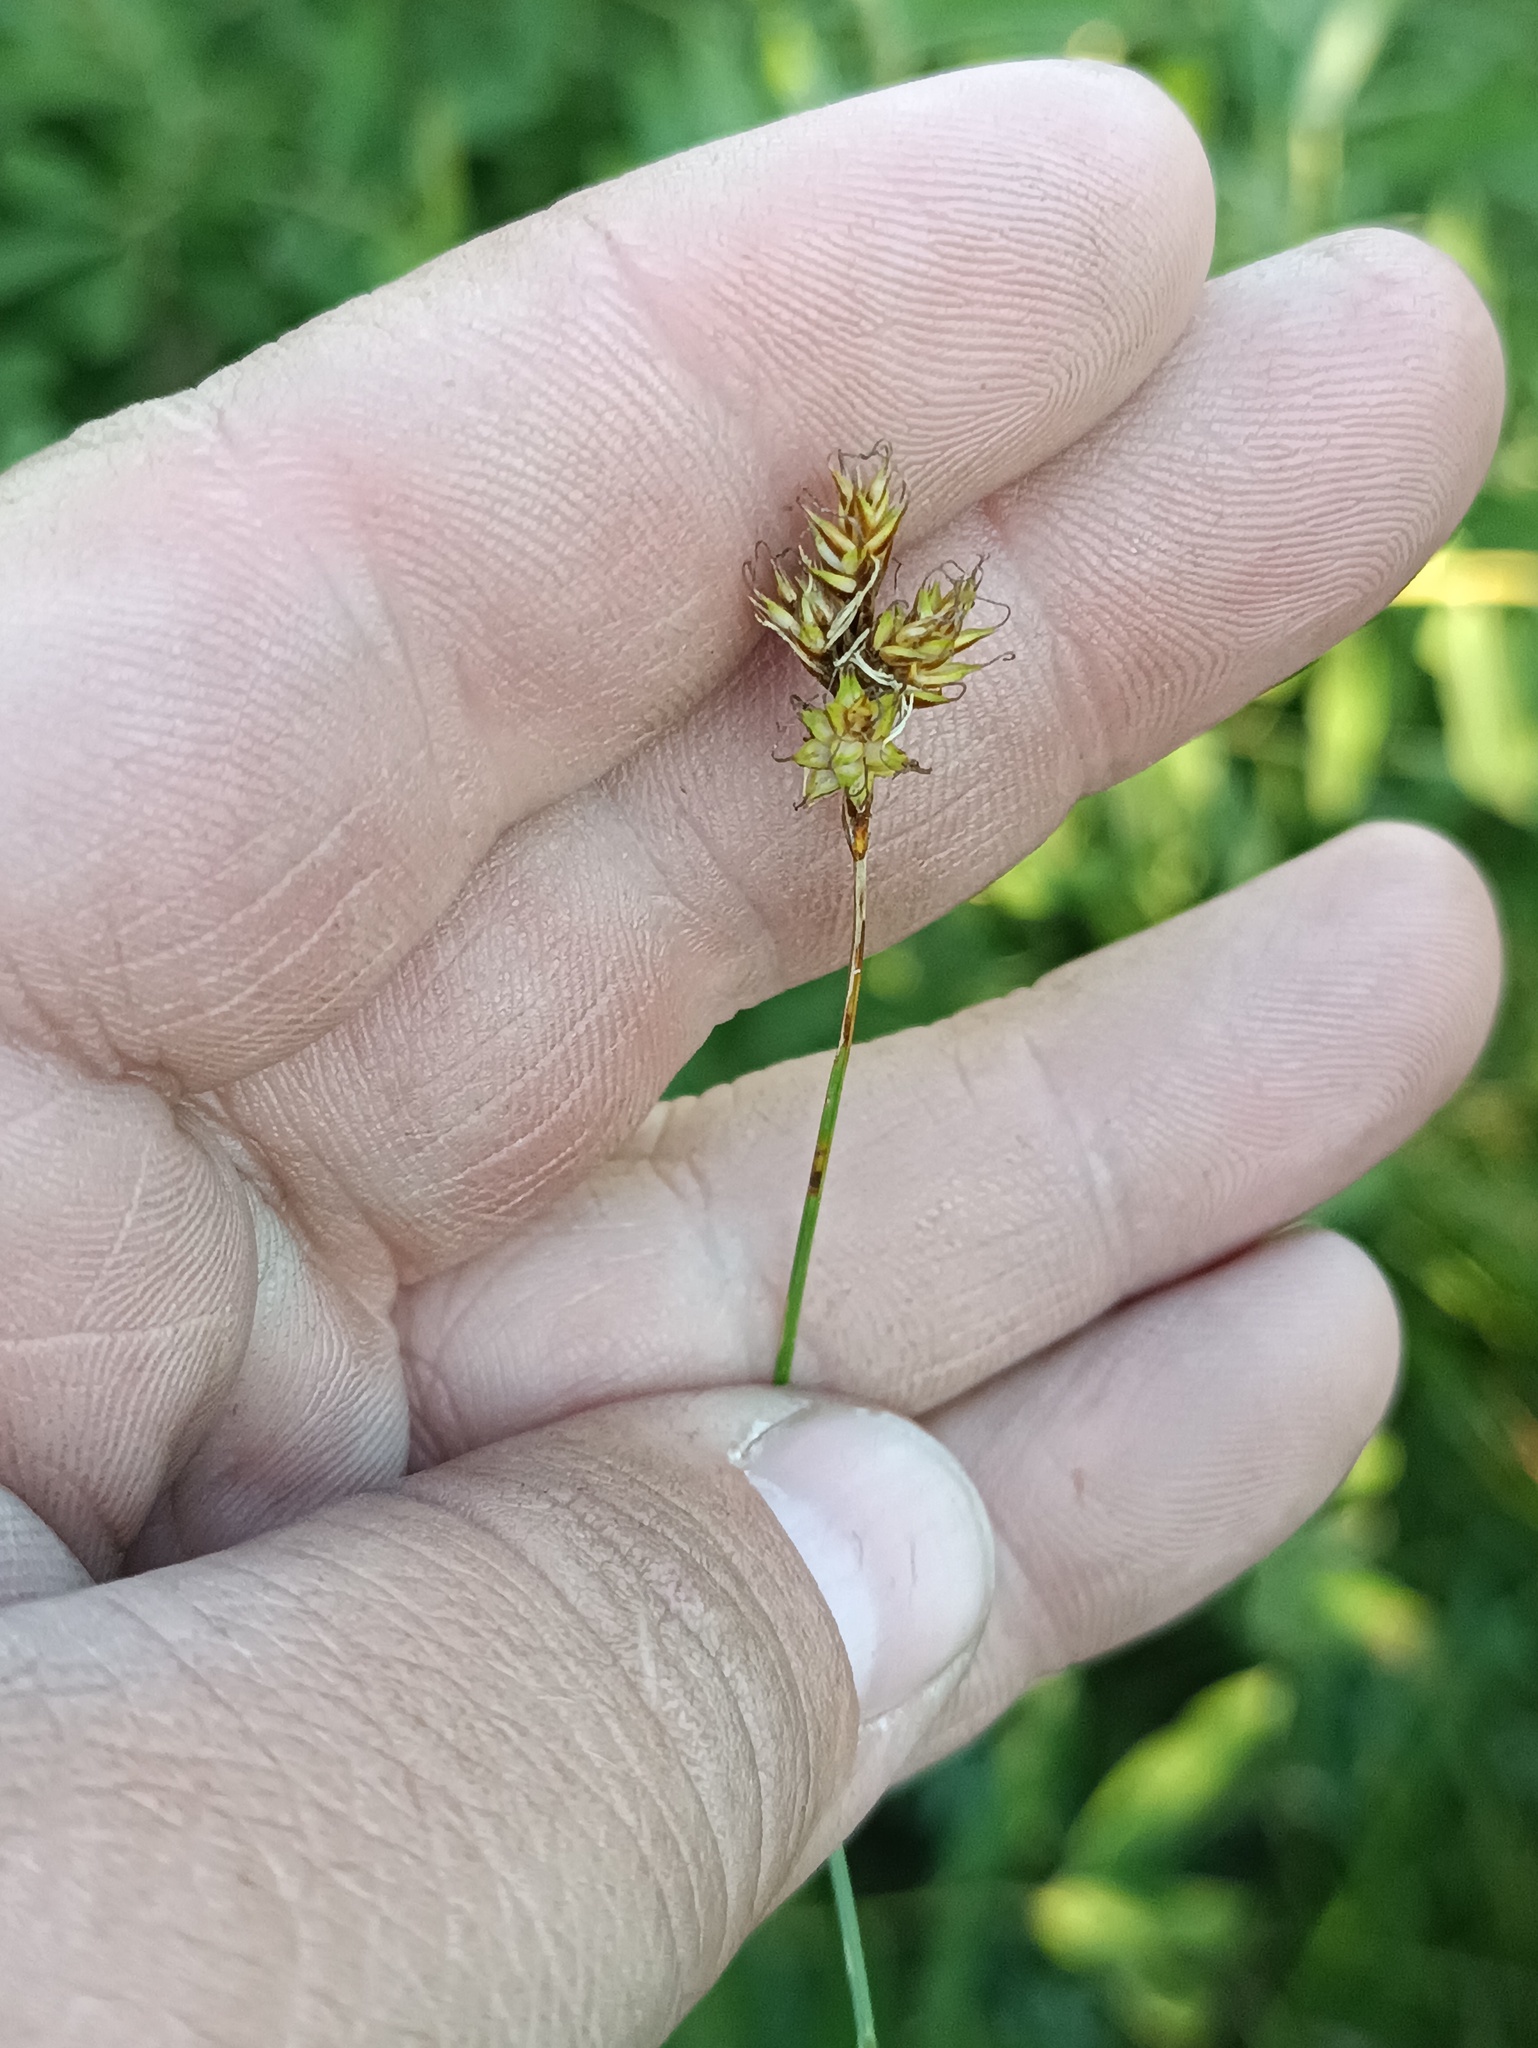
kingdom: Plantae
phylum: Tracheophyta
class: Liliopsida
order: Poales
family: Cyperaceae
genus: Carex
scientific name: Carex praecox
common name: Early sedge
